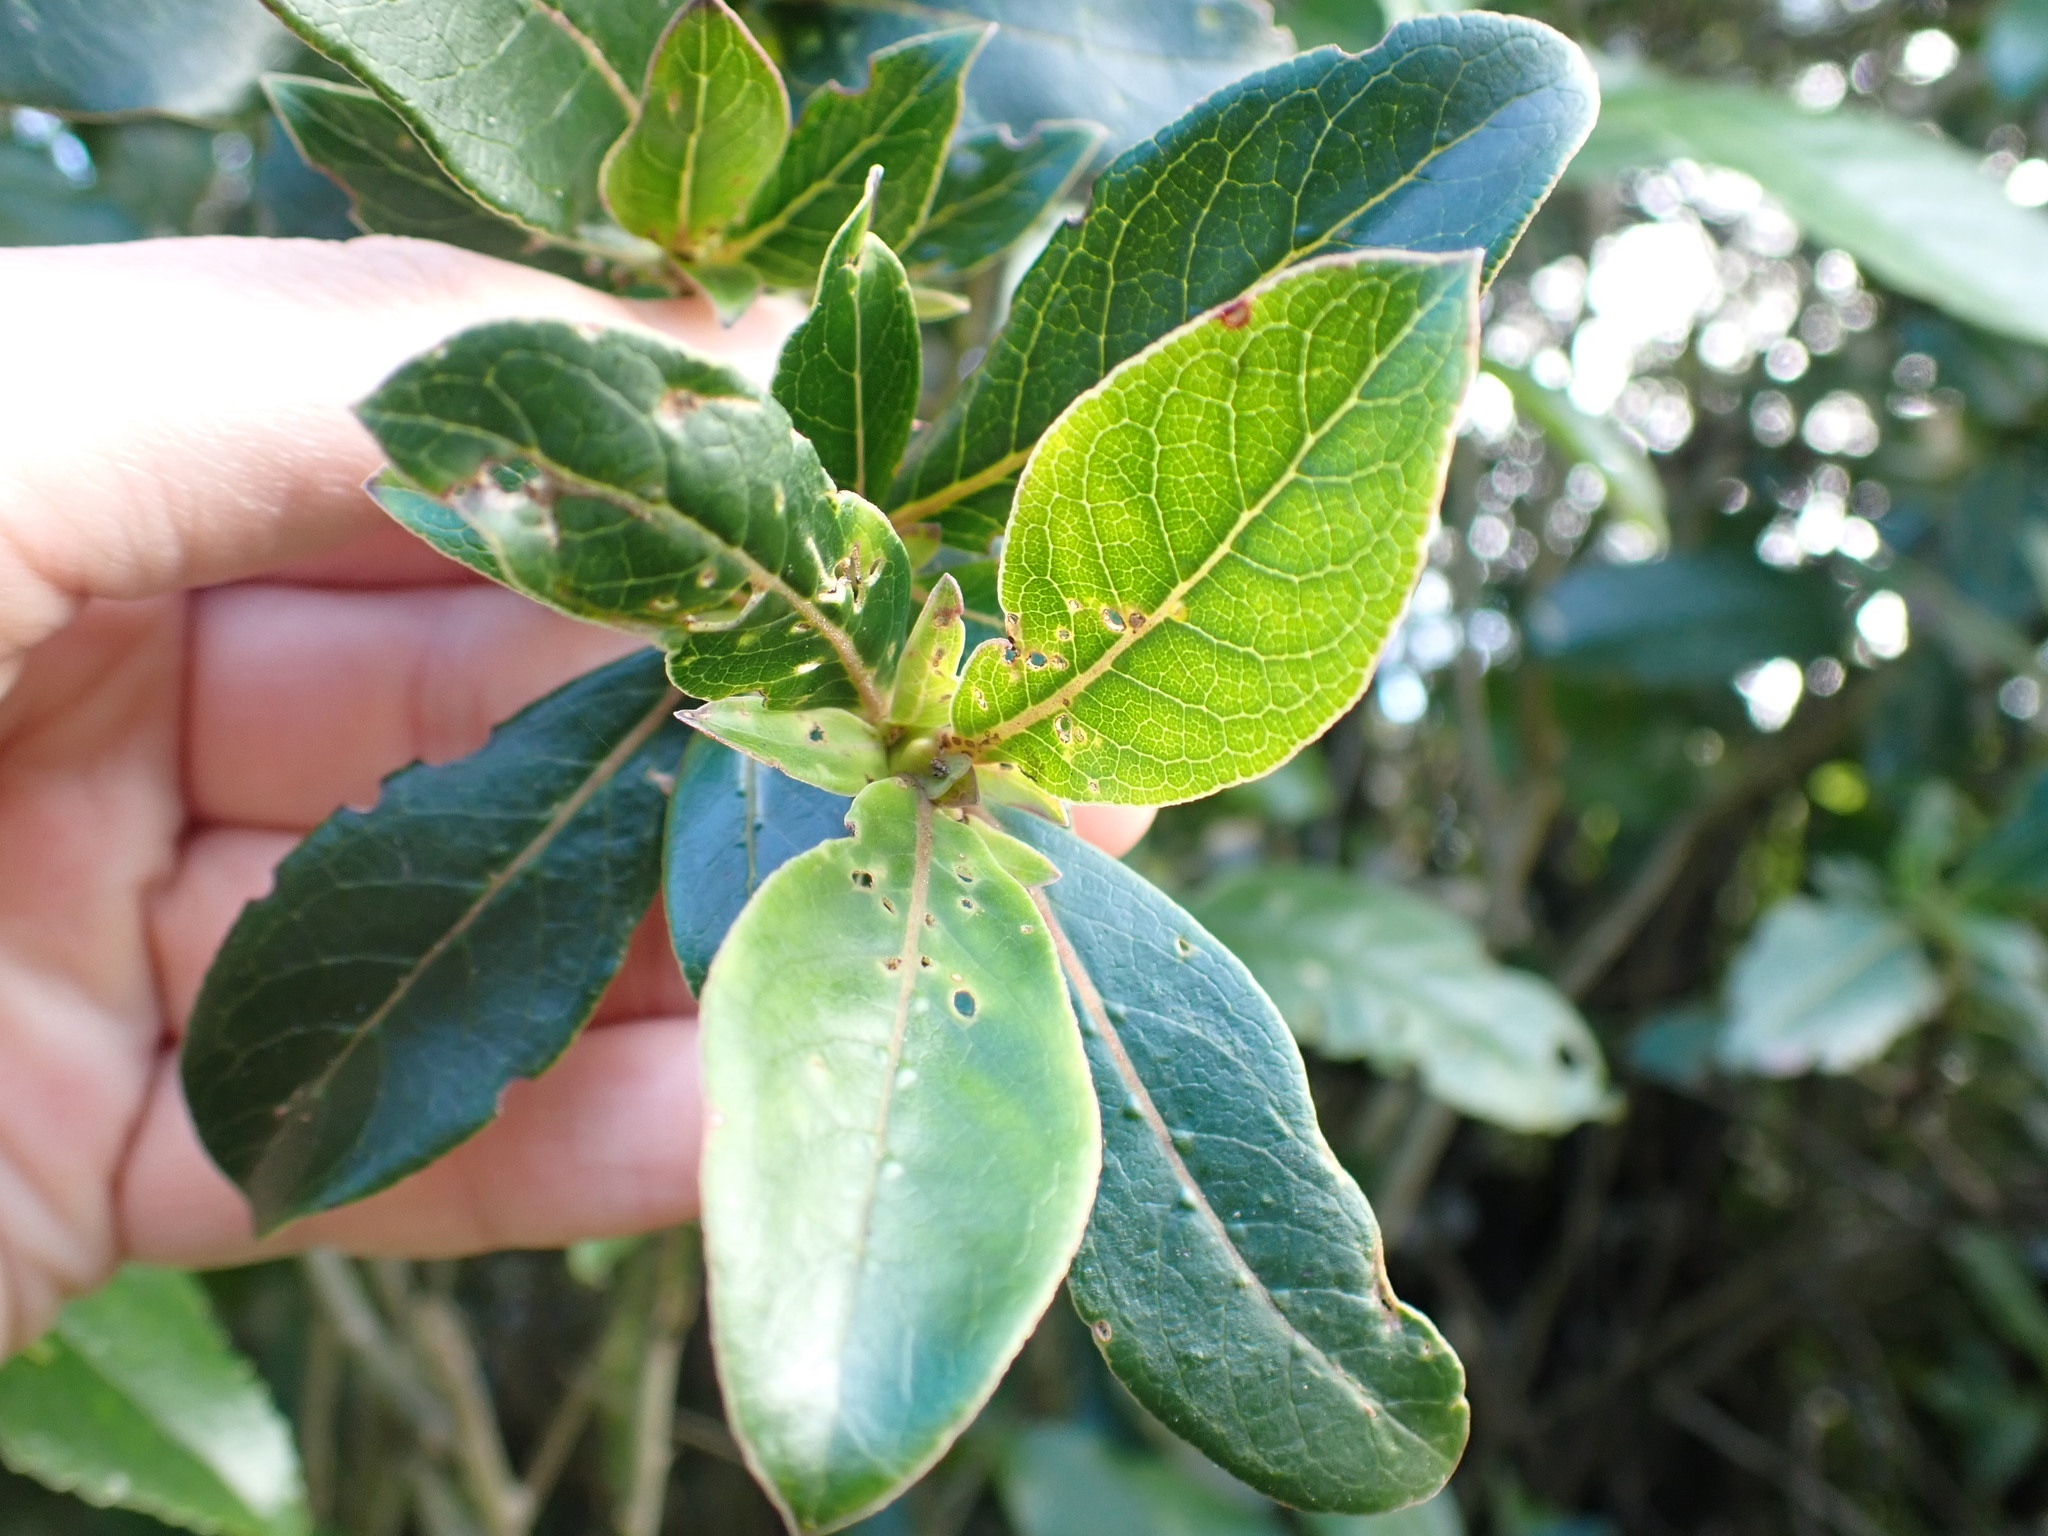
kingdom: Plantae
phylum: Tracheophyta
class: Magnoliopsida
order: Gentianales
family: Rubiaceae
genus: Coprosma
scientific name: Coprosma robusta
